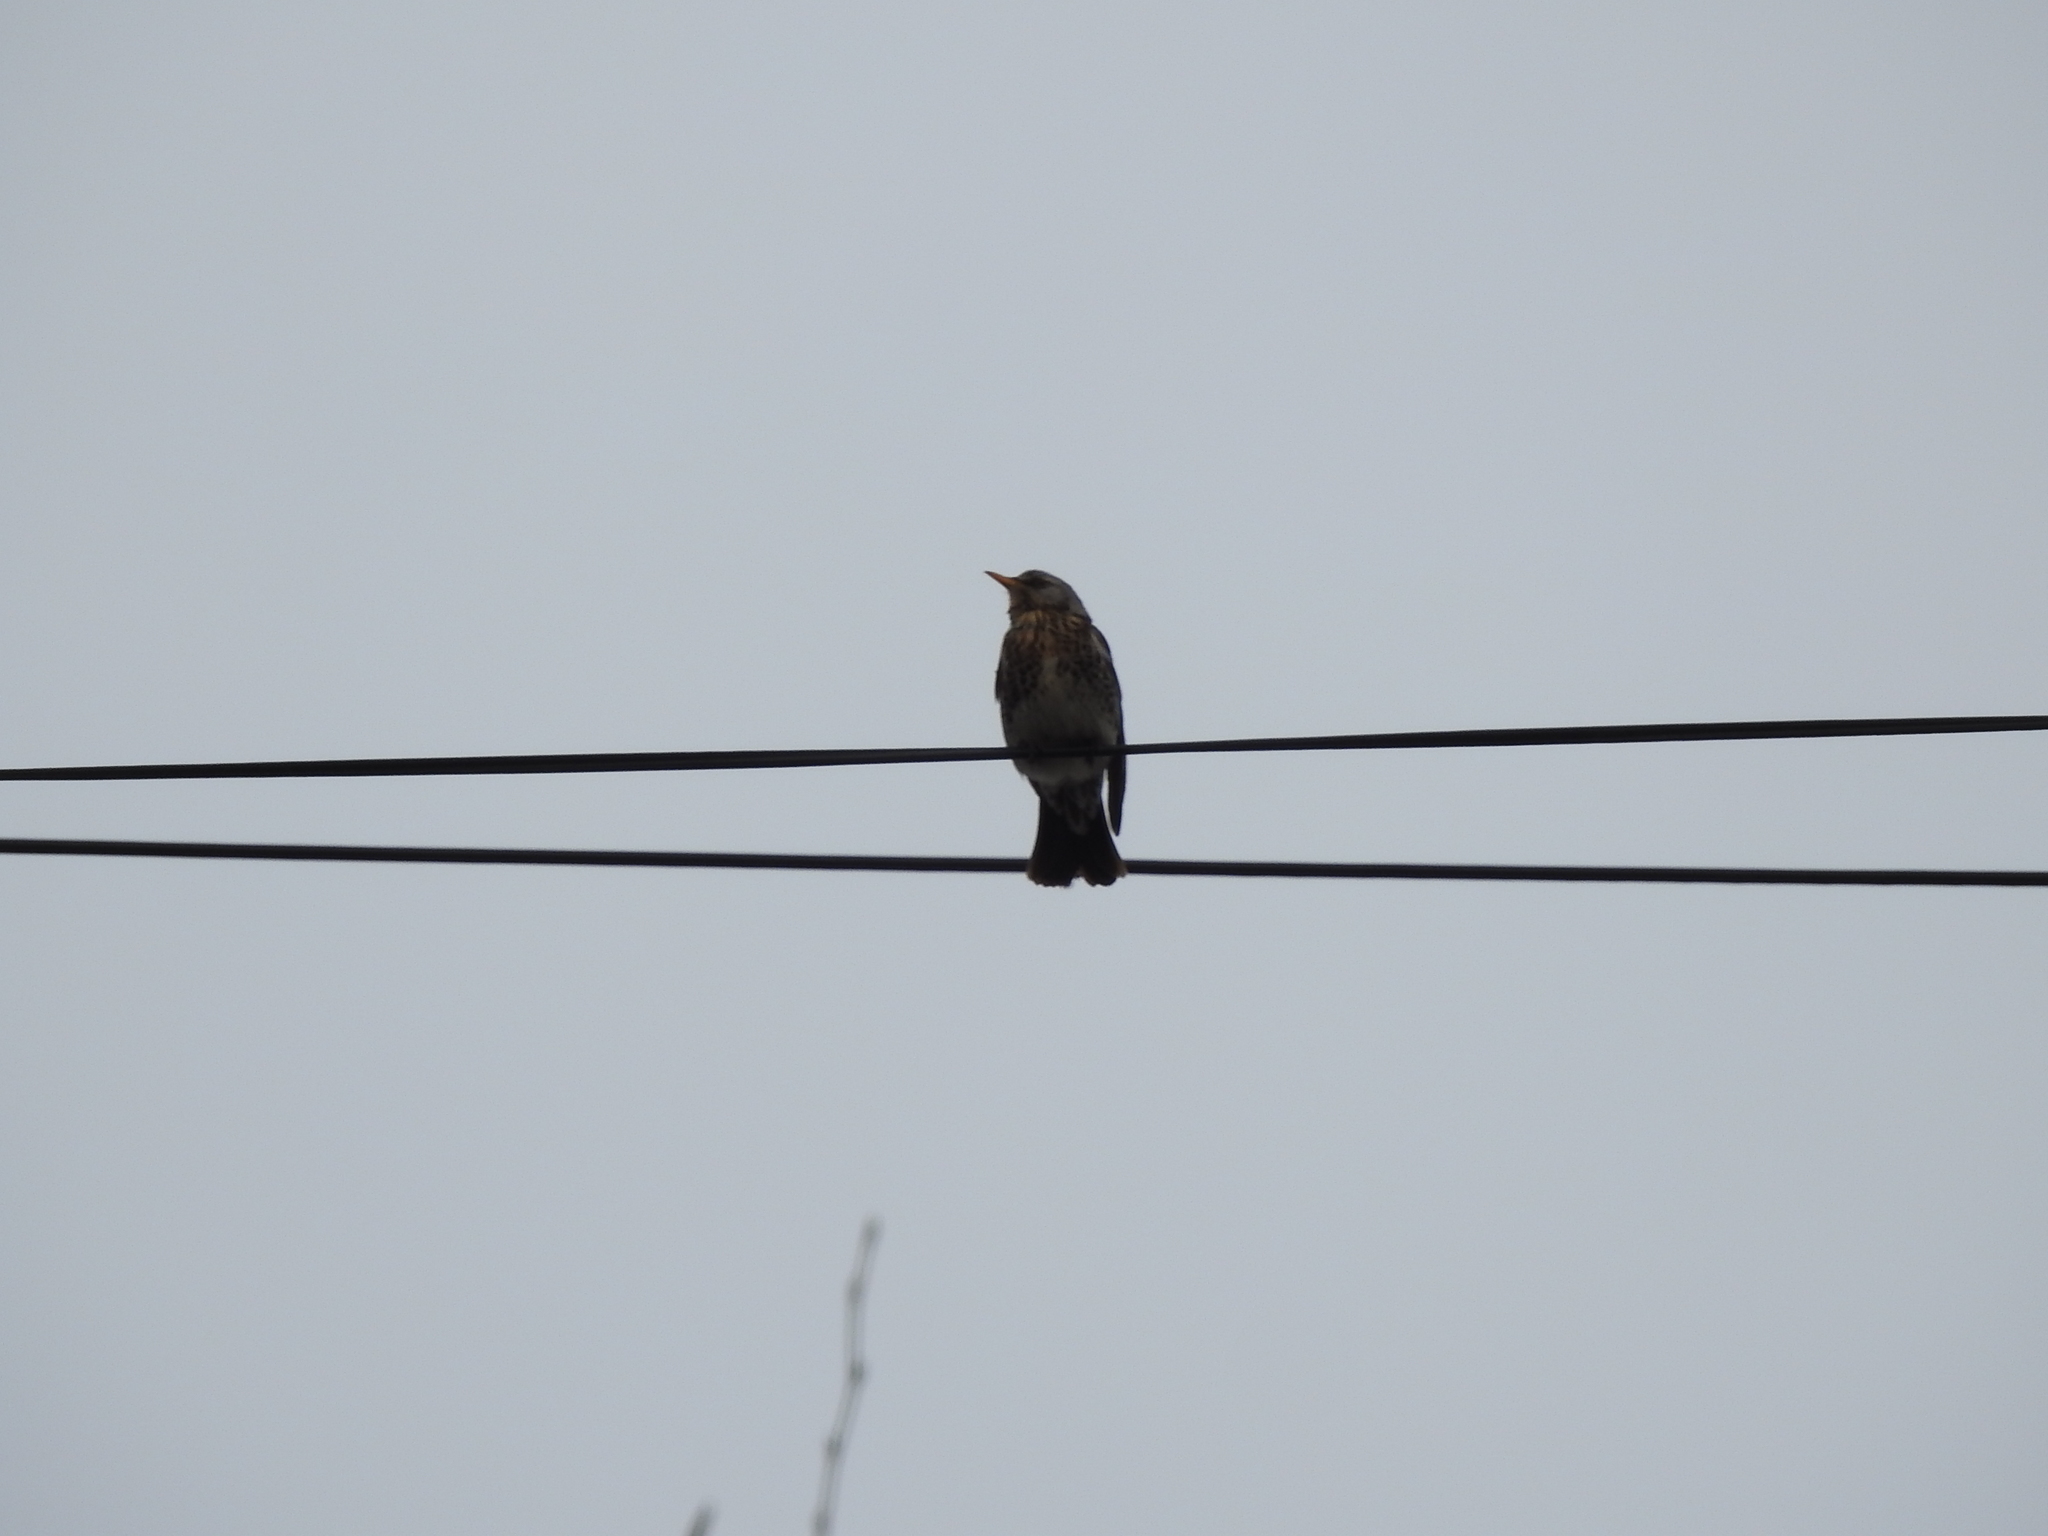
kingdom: Animalia
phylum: Chordata
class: Aves
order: Passeriformes
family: Turdidae
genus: Turdus
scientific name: Turdus pilaris
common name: Fieldfare
